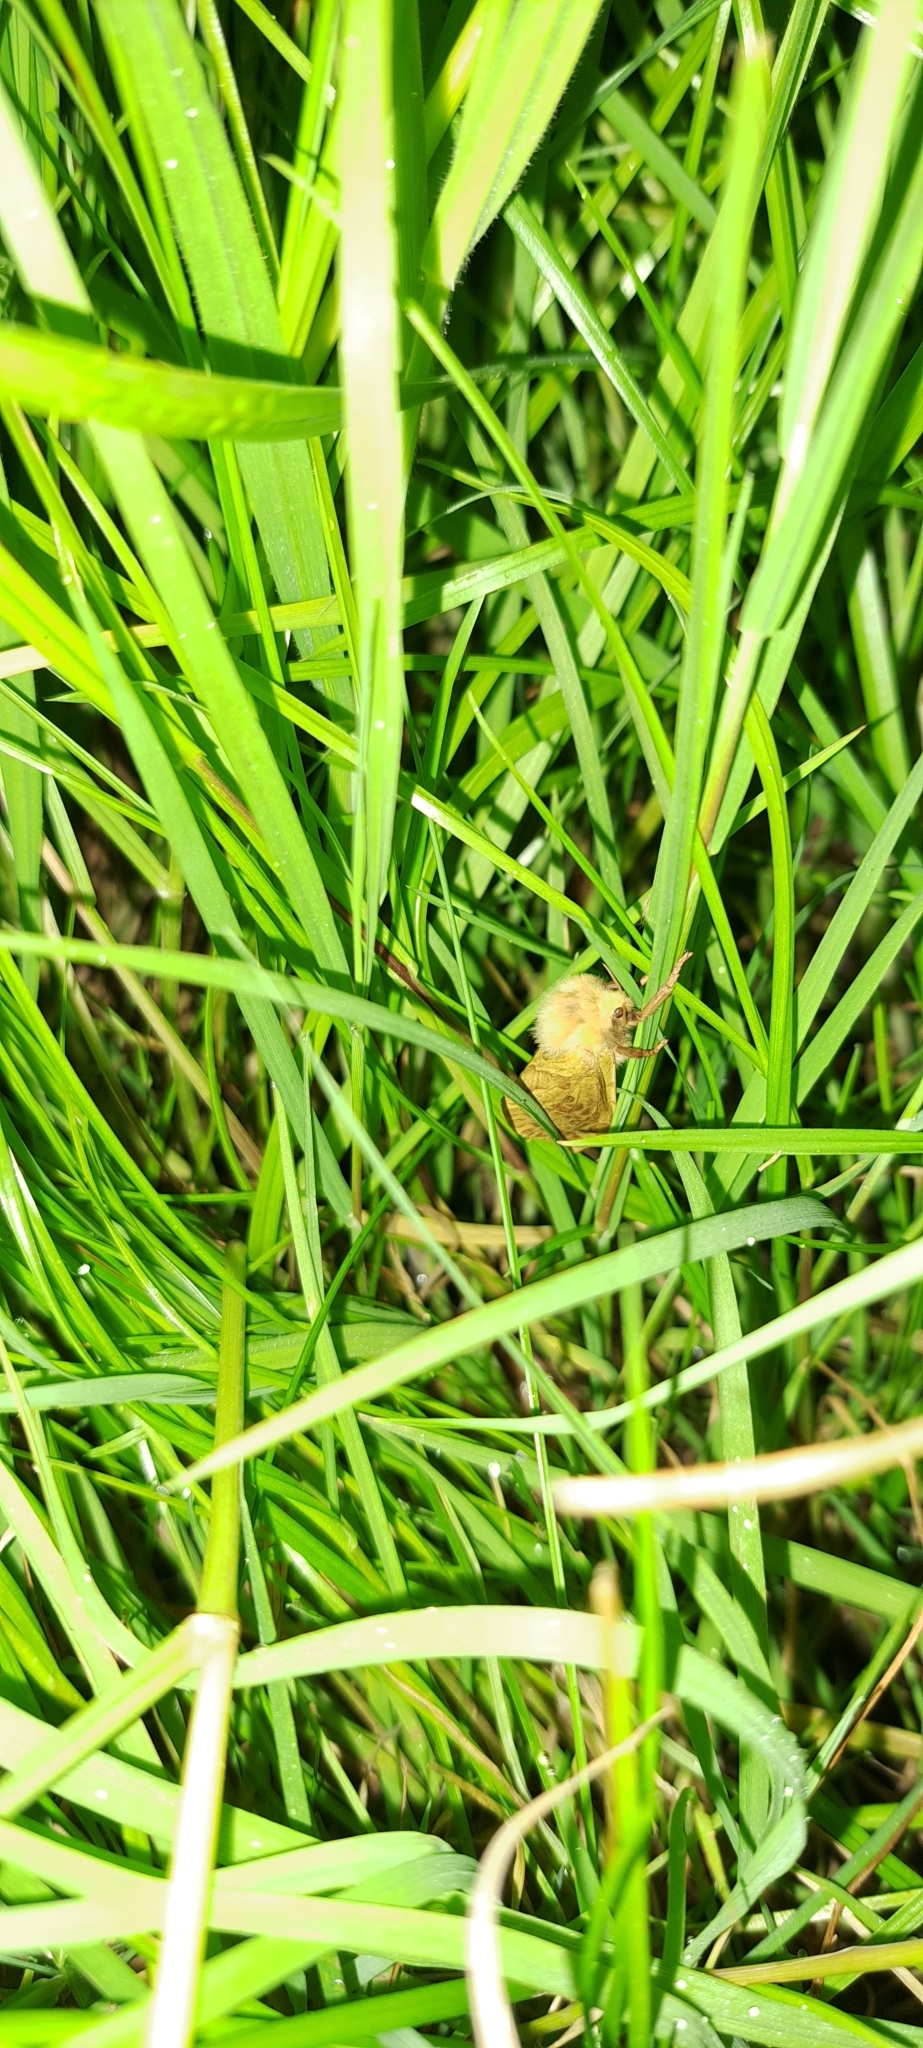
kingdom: Animalia
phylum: Arthropoda
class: Insecta
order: Lepidoptera
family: Hepialidae
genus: Hepialus
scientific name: Hepialus humuli
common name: Ghost moth
